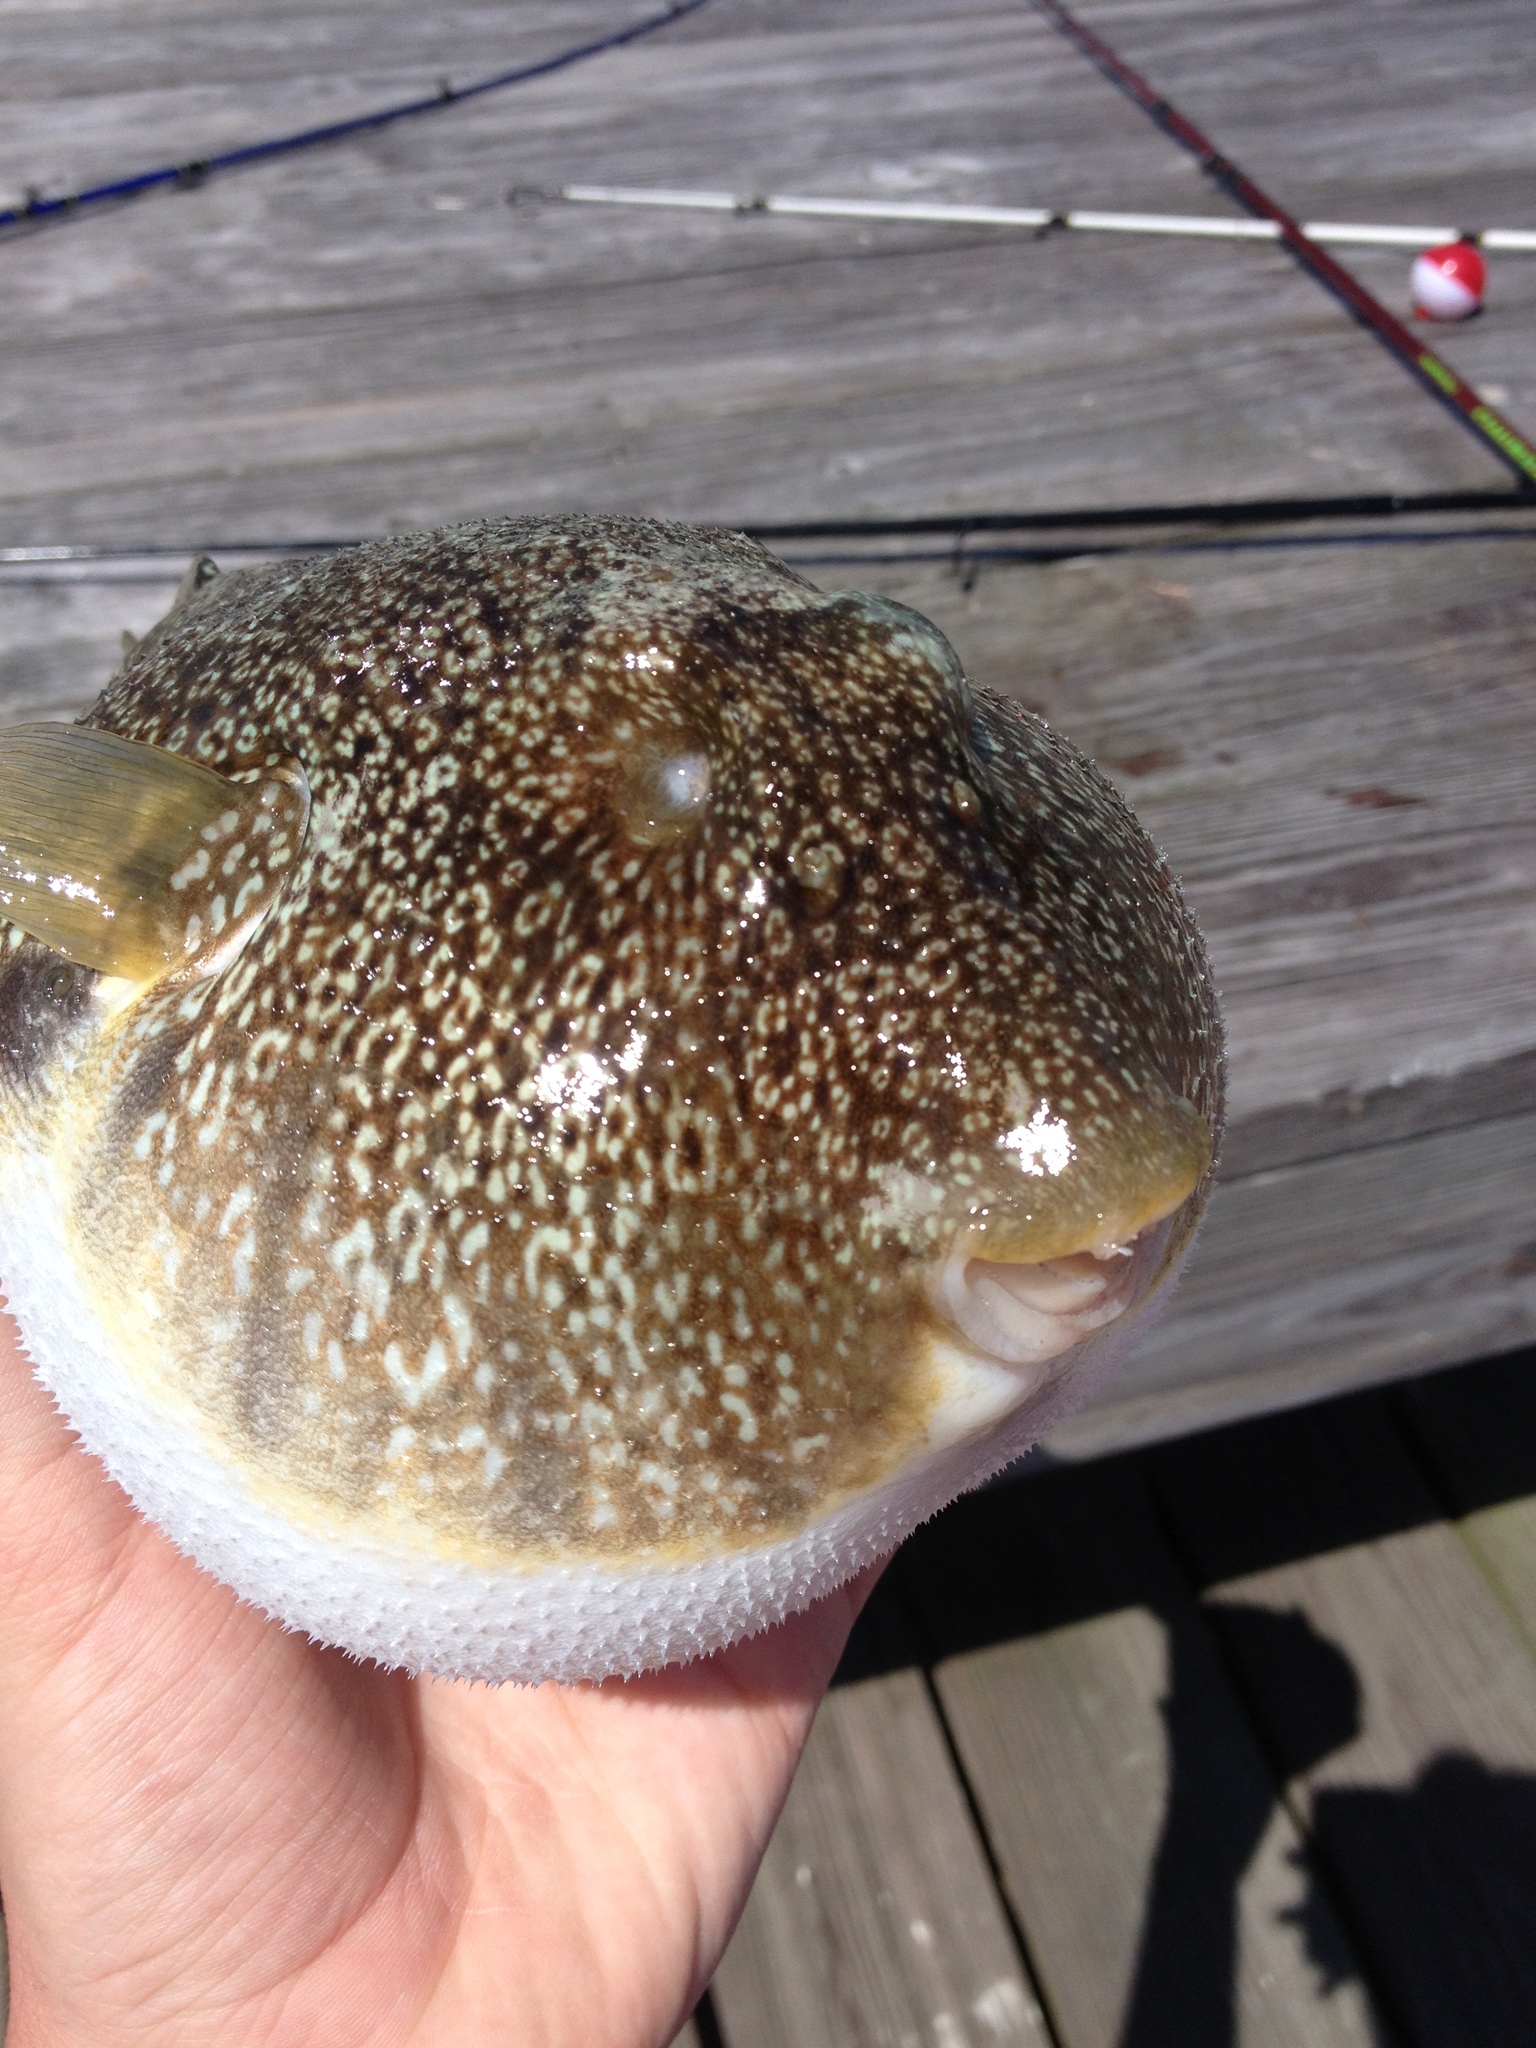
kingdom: Animalia
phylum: Chordata
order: Tetraodontiformes
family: Tetraodontidae
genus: Sphoeroides
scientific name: Sphoeroides nephelus
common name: Southern puffer
